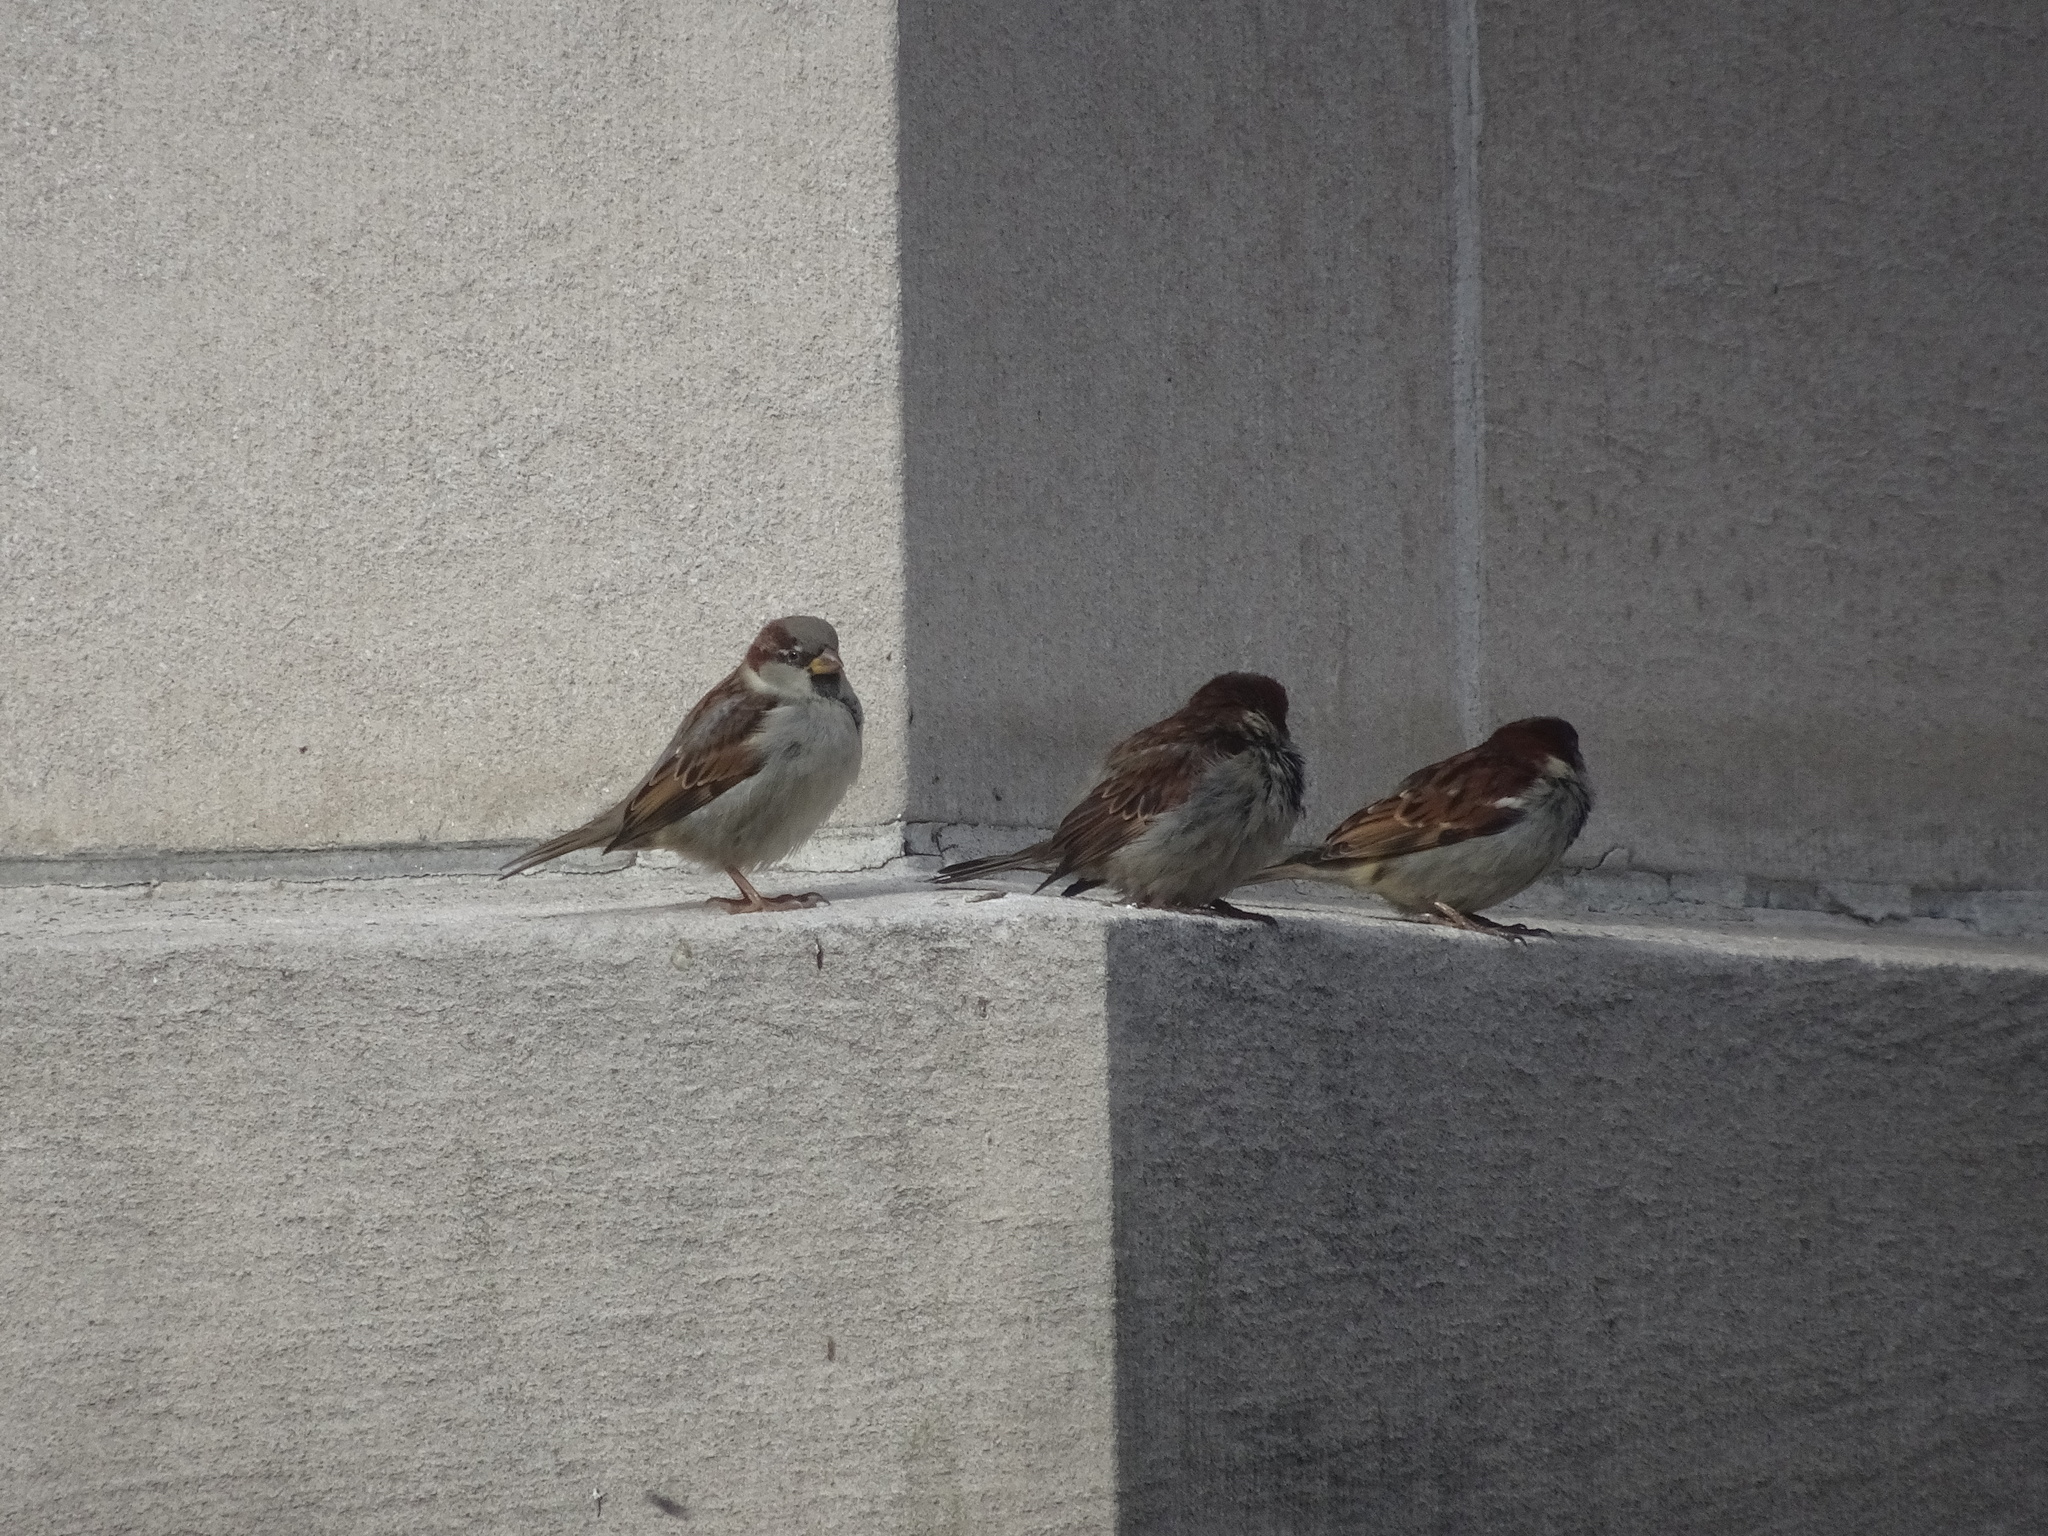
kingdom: Animalia
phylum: Chordata
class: Aves
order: Passeriformes
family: Passeridae
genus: Passer
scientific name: Passer domesticus
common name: House sparrow
